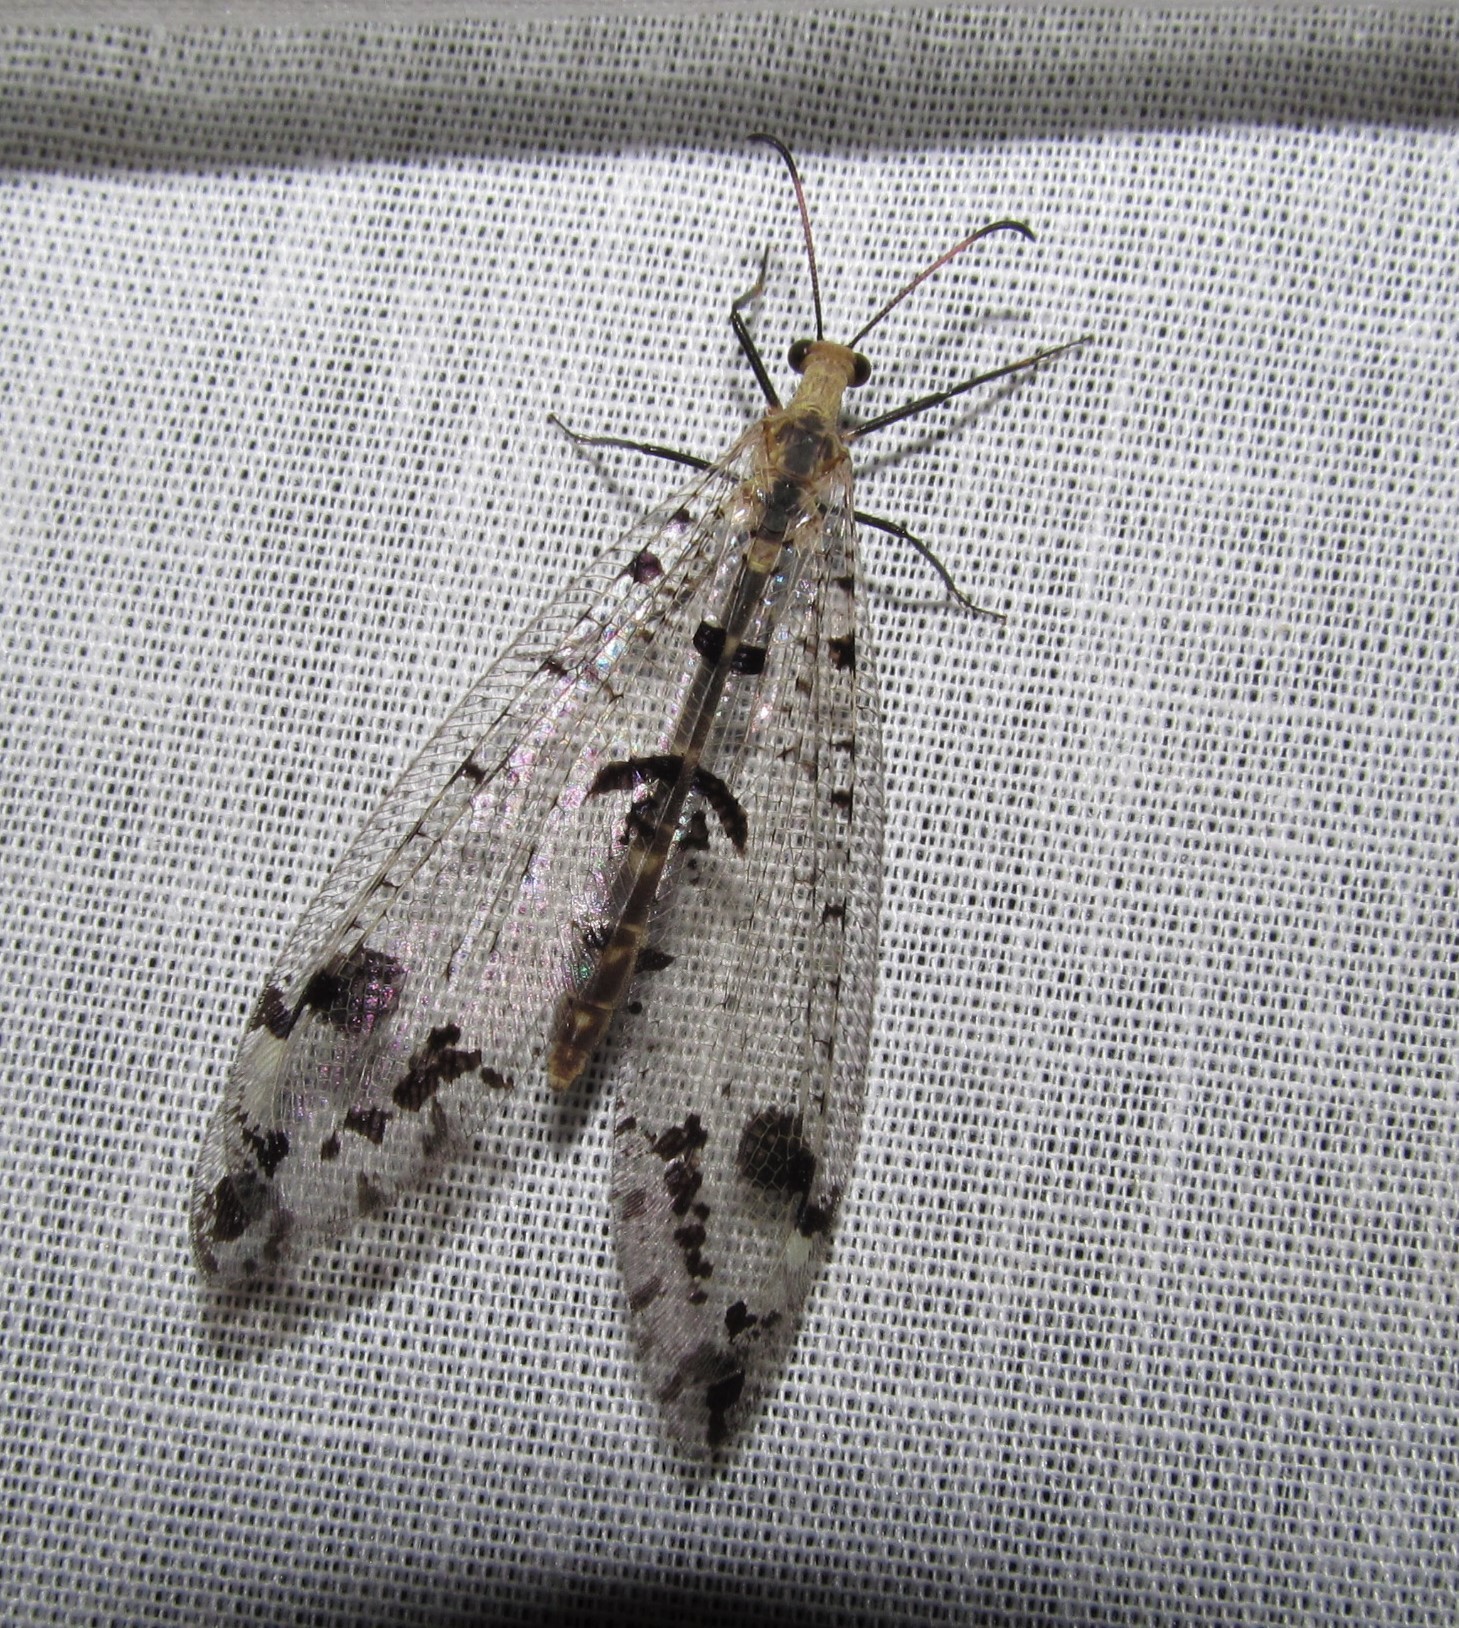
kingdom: Animalia
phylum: Arthropoda
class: Insecta
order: Neuroptera
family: Myrmeleontidae
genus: Dendroleon
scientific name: Dendroleon obsoletus
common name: Eastern spotted-winged antlion
